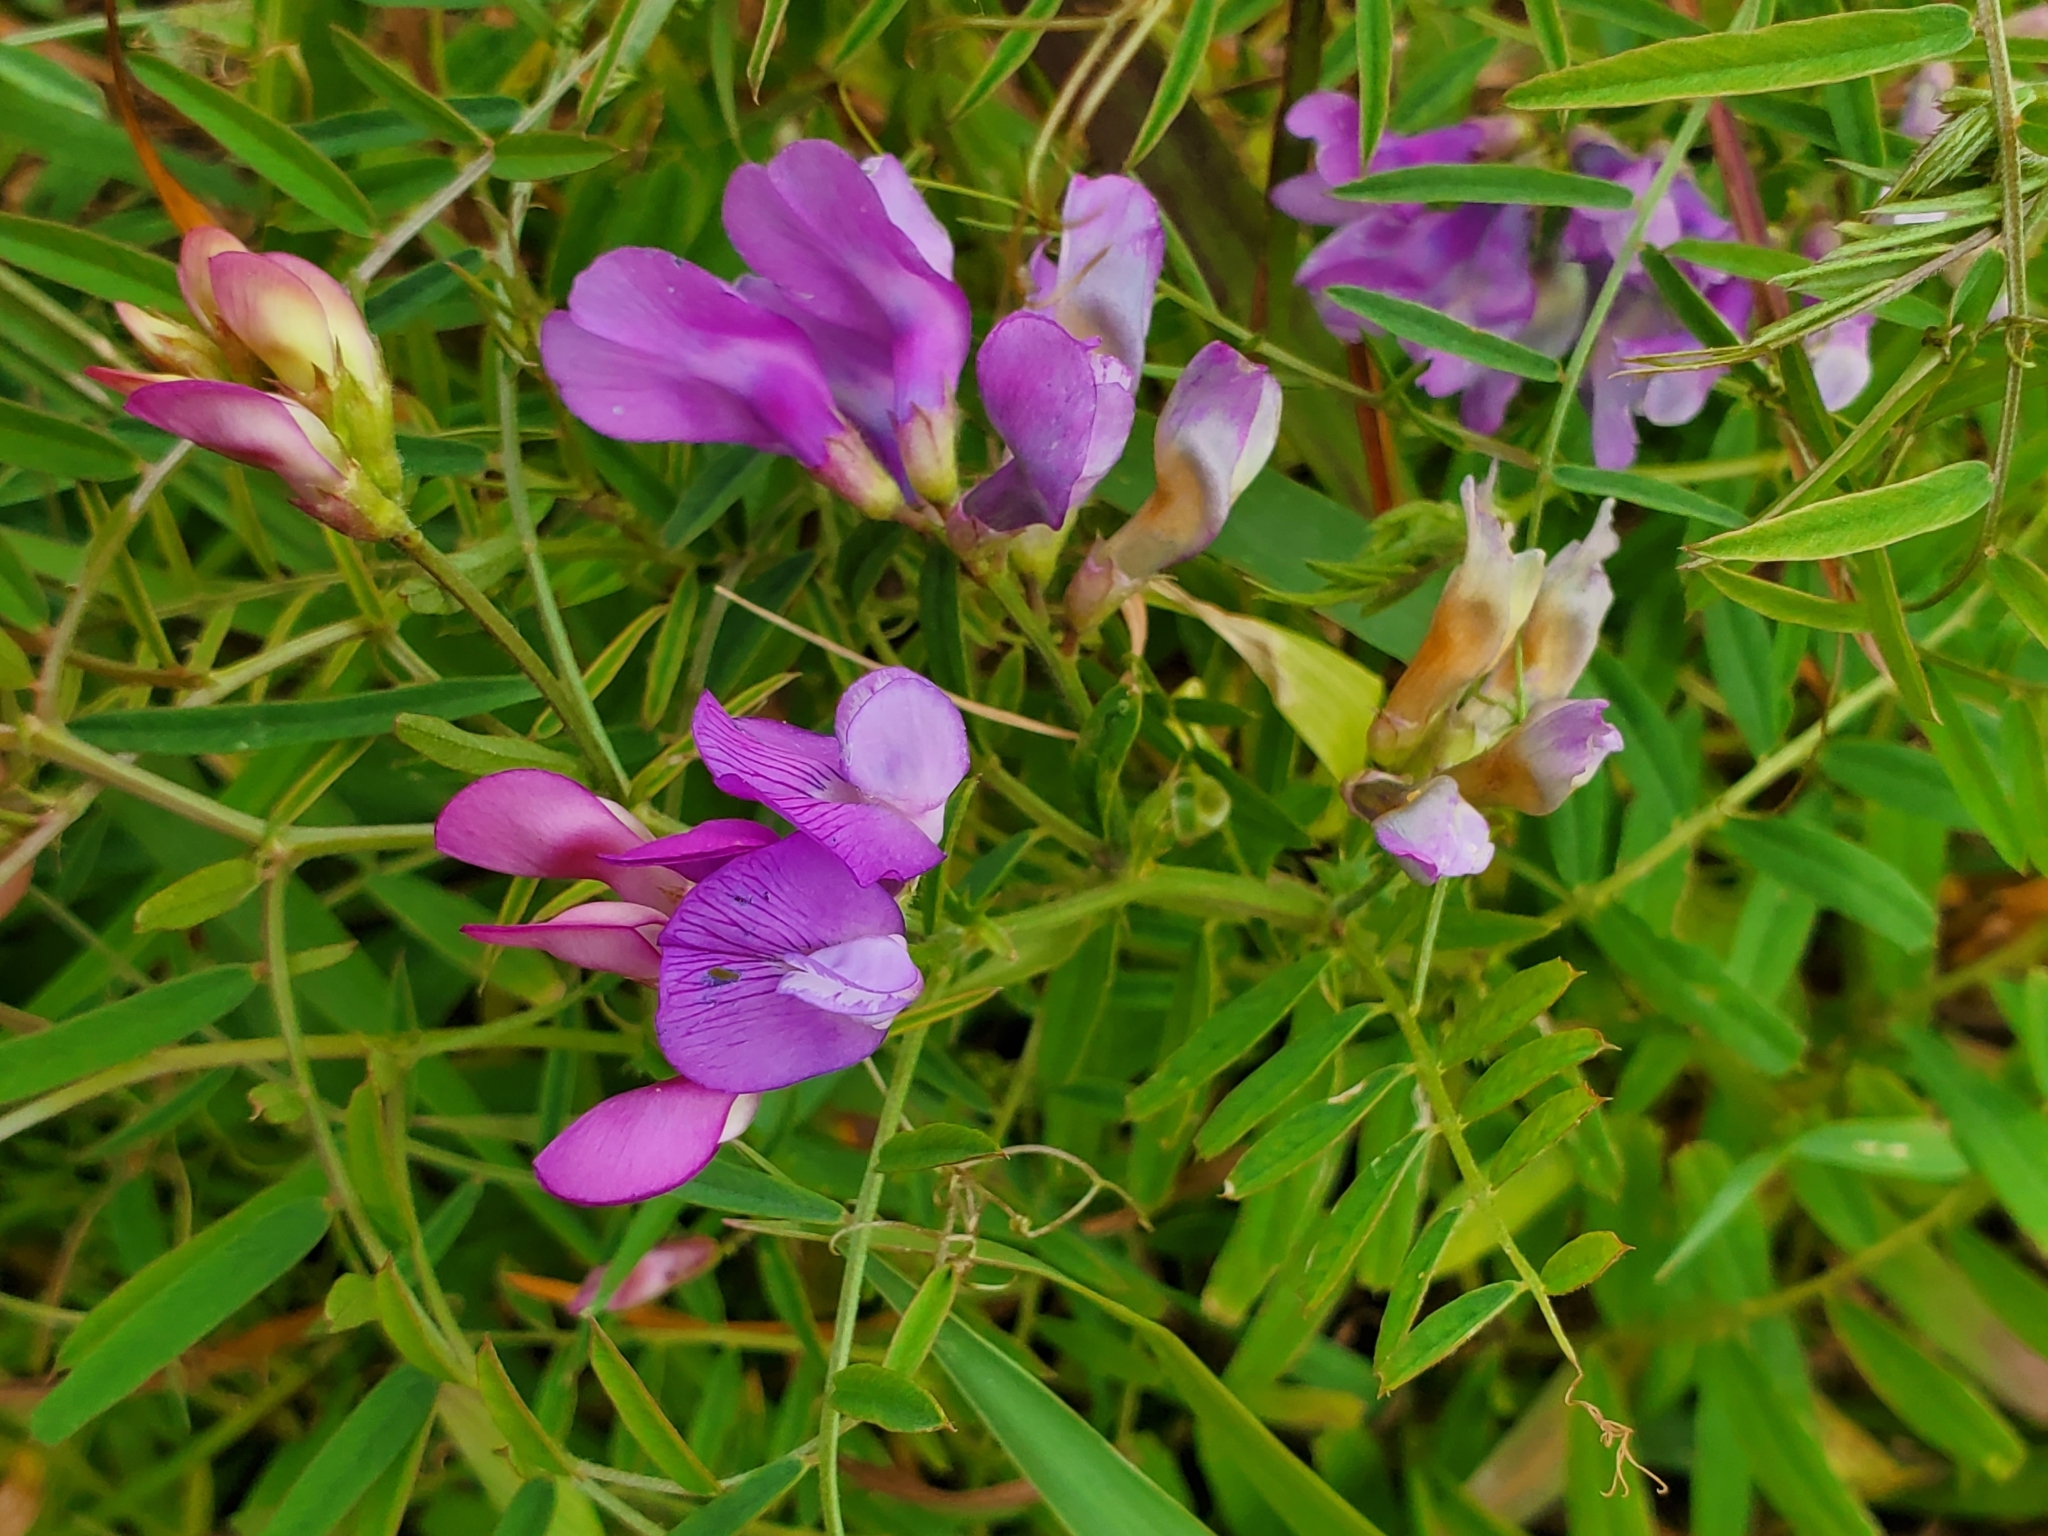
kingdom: Plantae
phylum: Tracheophyta
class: Magnoliopsida
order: Fabales
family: Fabaceae
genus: Vicia
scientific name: Vicia americana
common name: American vetch
